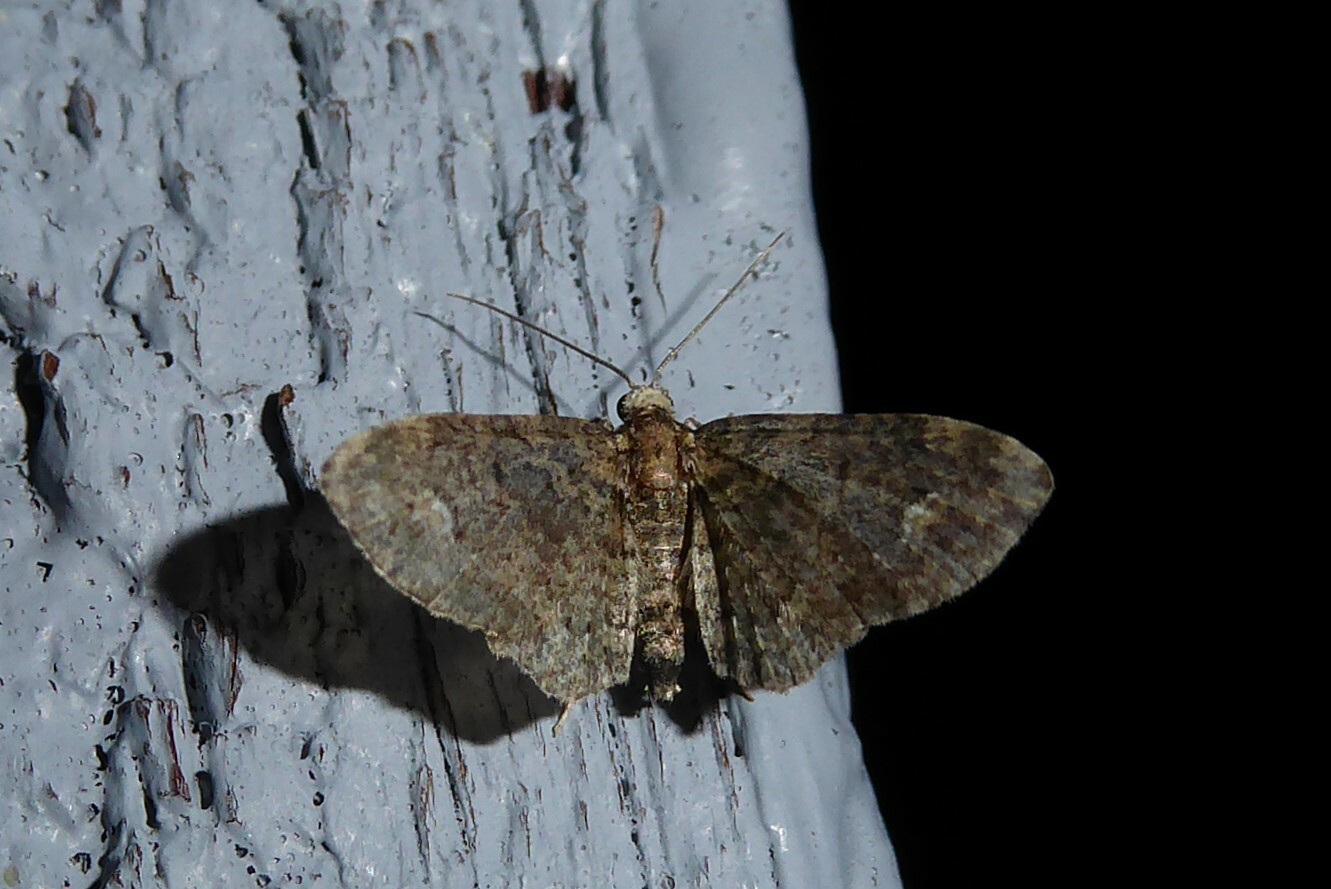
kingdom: Animalia
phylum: Arthropoda
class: Insecta
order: Lepidoptera
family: Geometridae
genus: Pasiphilodes
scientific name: Pasiphilodes testulata
